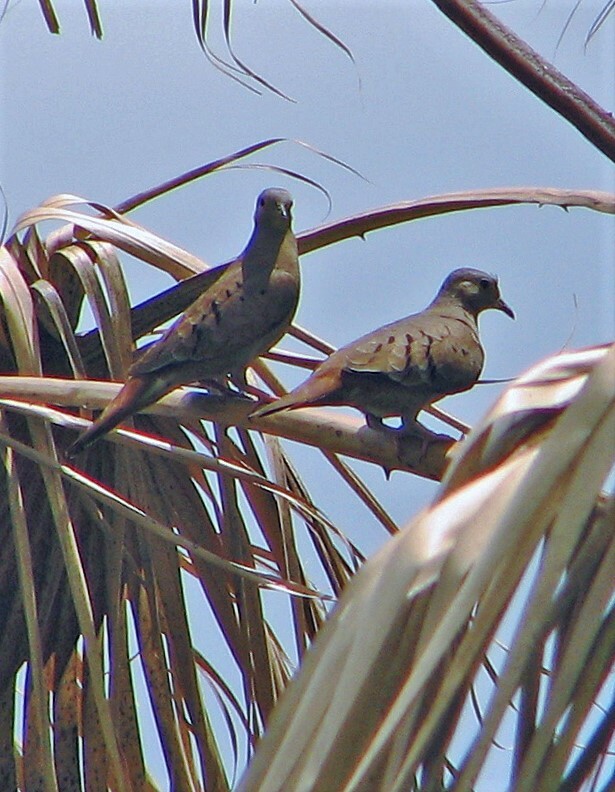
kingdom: Animalia
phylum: Chordata
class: Aves
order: Columbiformes
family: Columbidae
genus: Columbina
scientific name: Columbina talpacoti
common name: Ruddy ground dove
